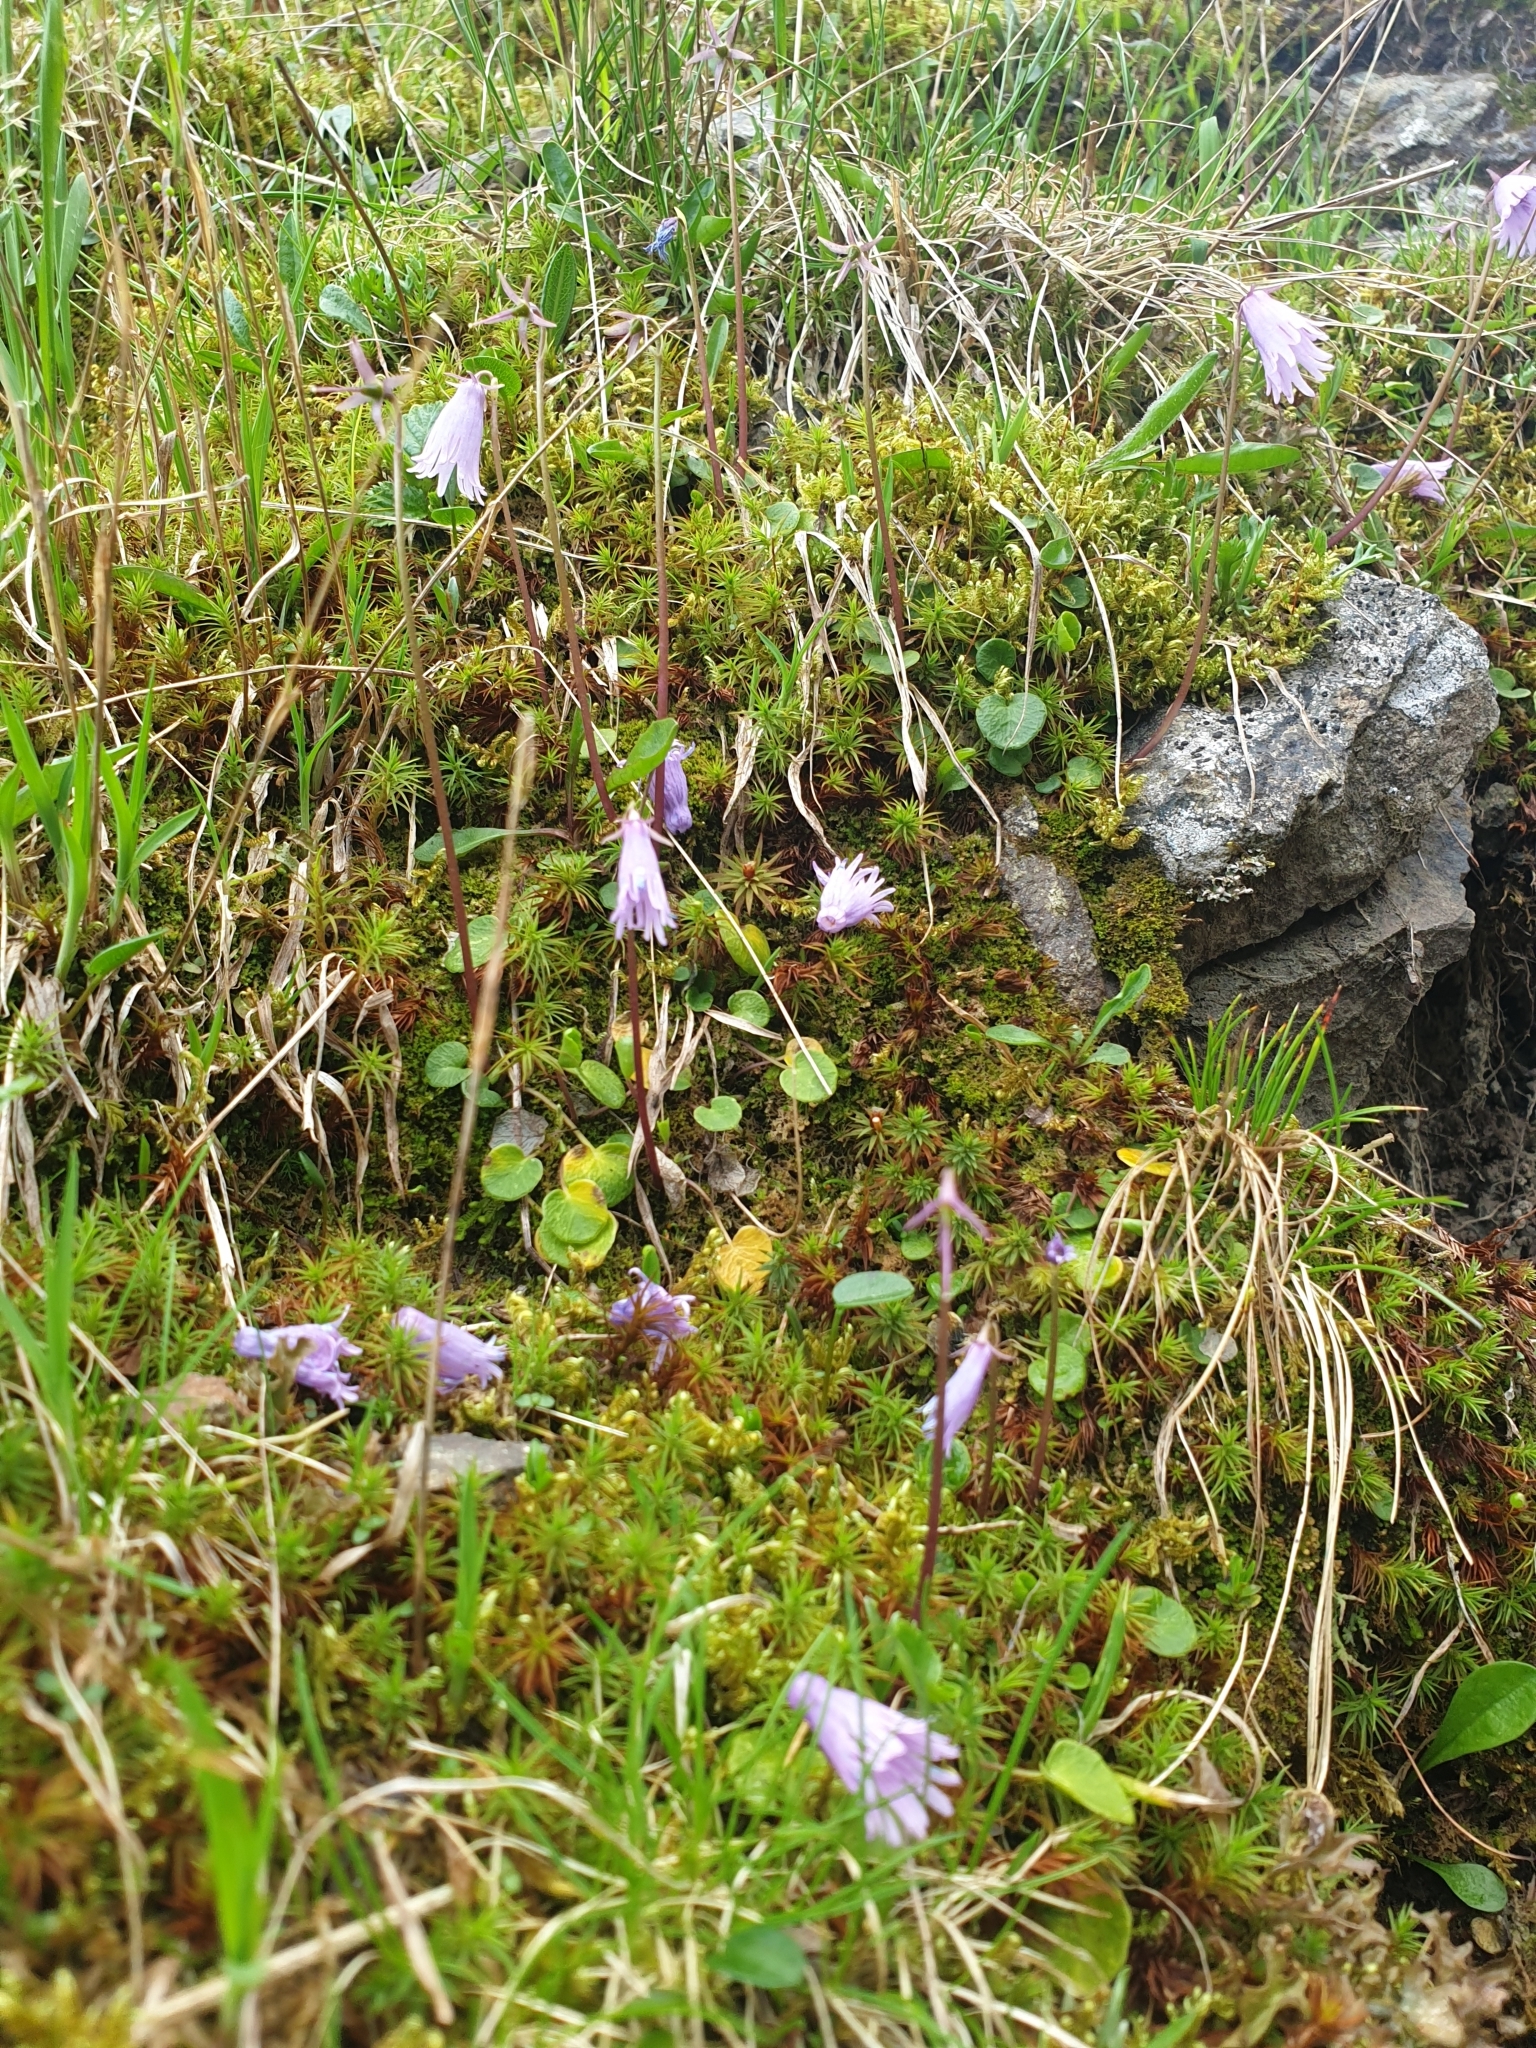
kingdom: Plantae
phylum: Tracheophyta
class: Magnoliopsida
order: Ericales
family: Primulaceae
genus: Soldanella
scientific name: Soldanella pusilla
